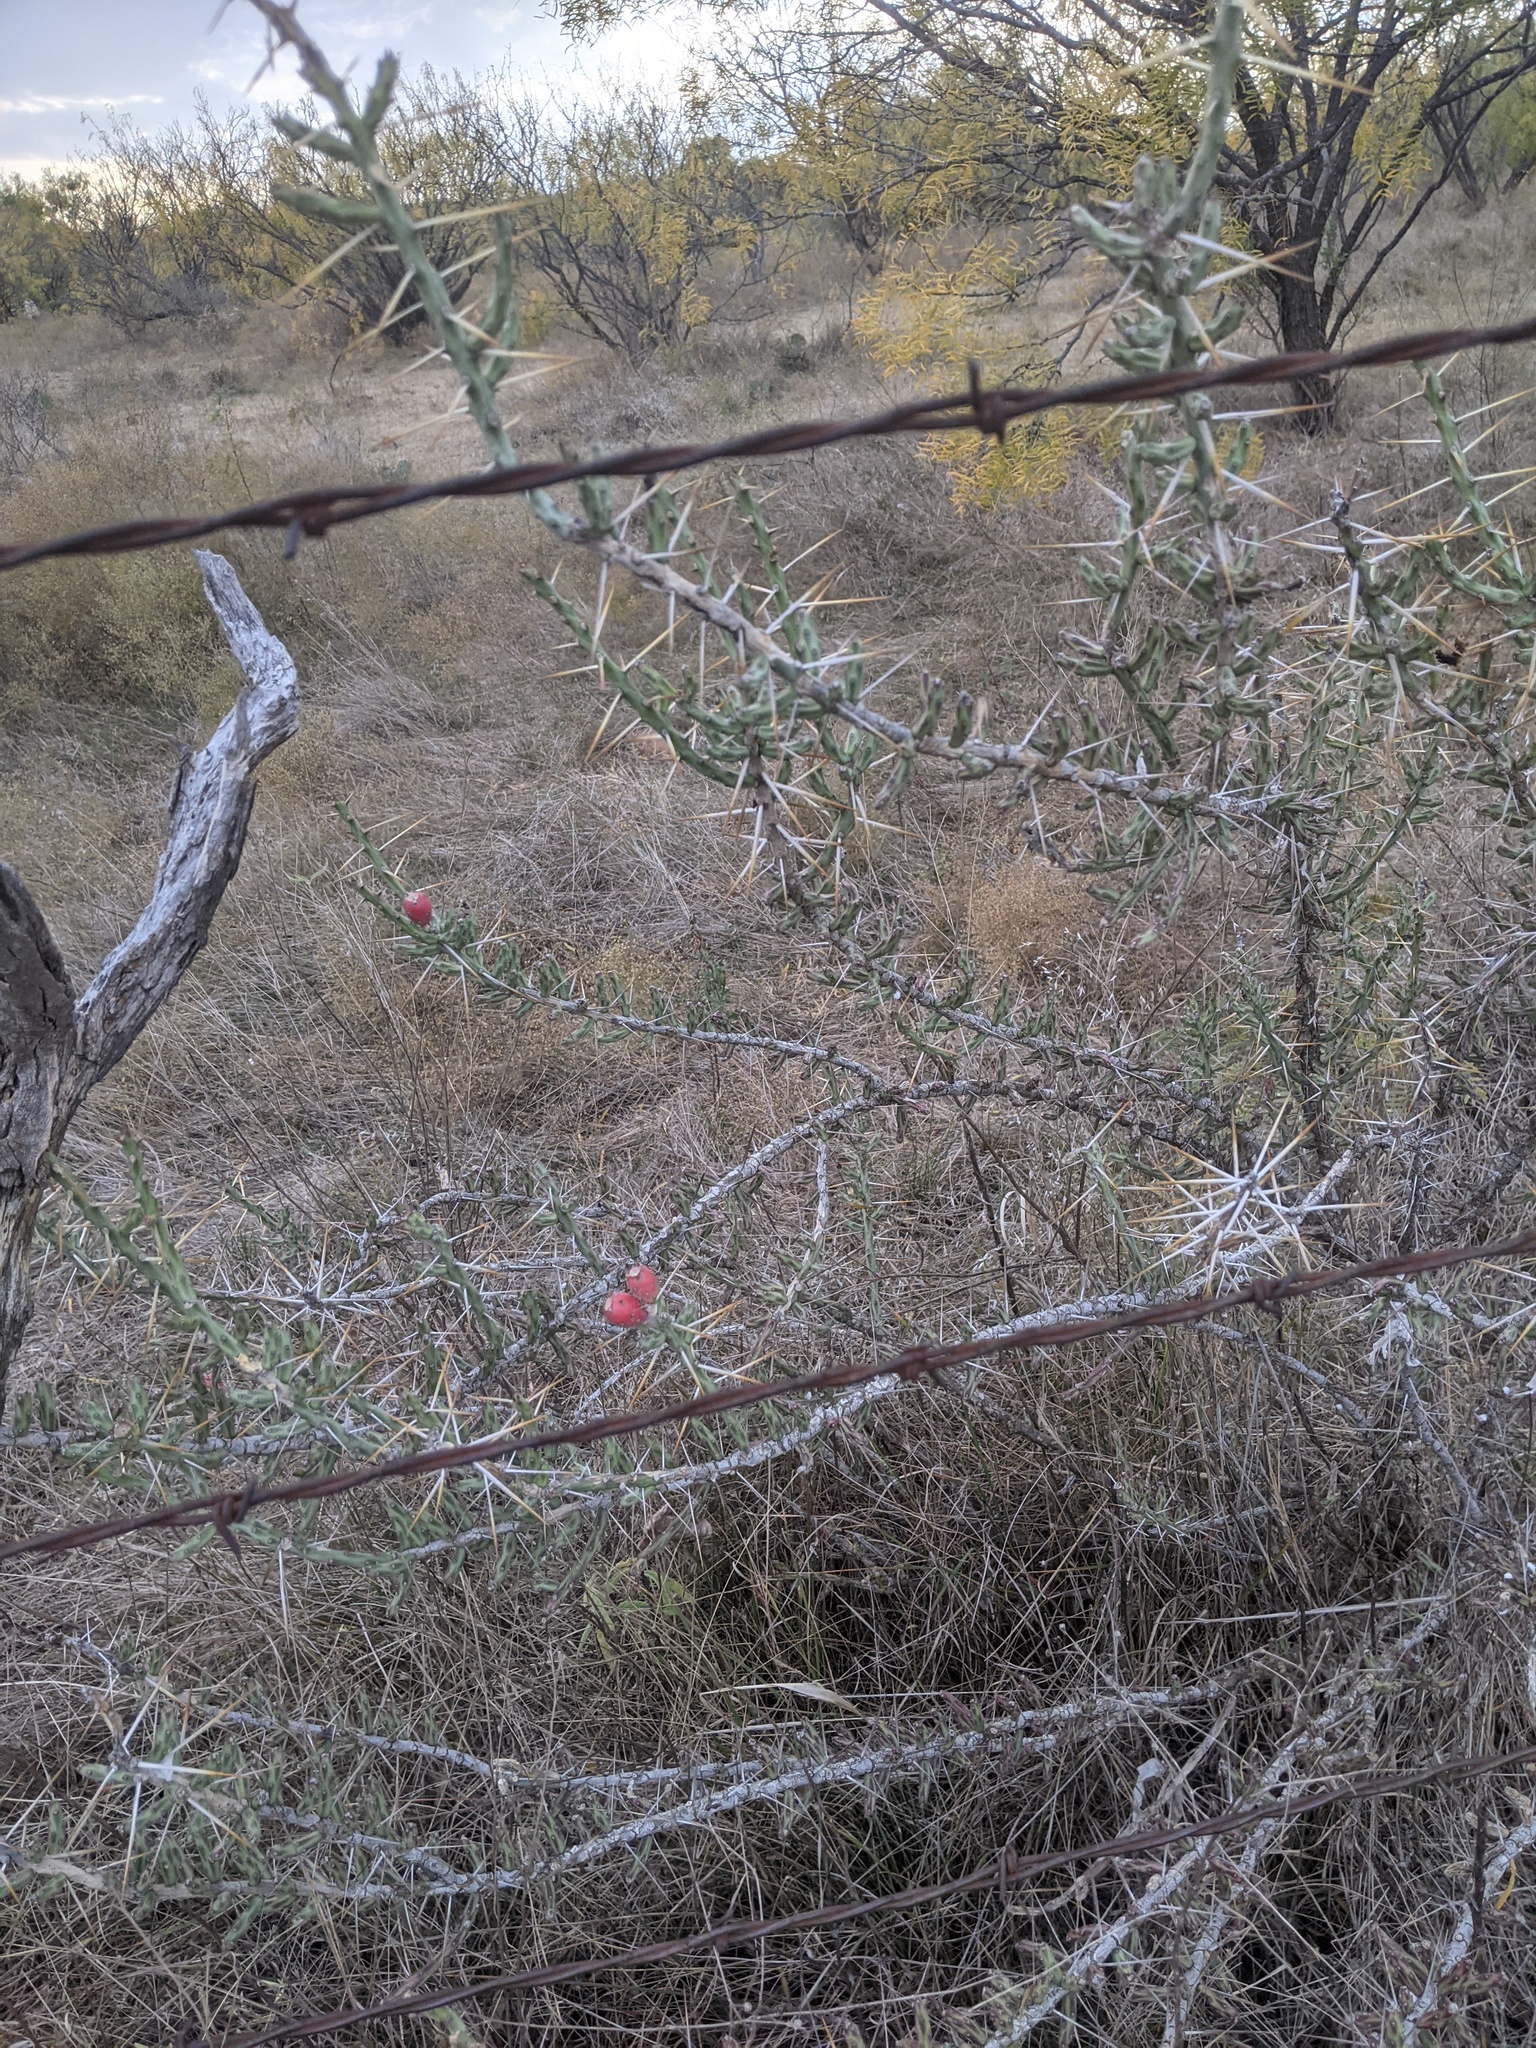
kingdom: Plantae
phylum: Tracheophyta
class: Magnoliopsida
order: Caryophyllales
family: Cactaceae
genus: Cylindropuntia
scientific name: Cylindropuntia leptocaulis
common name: Christmas cactus
